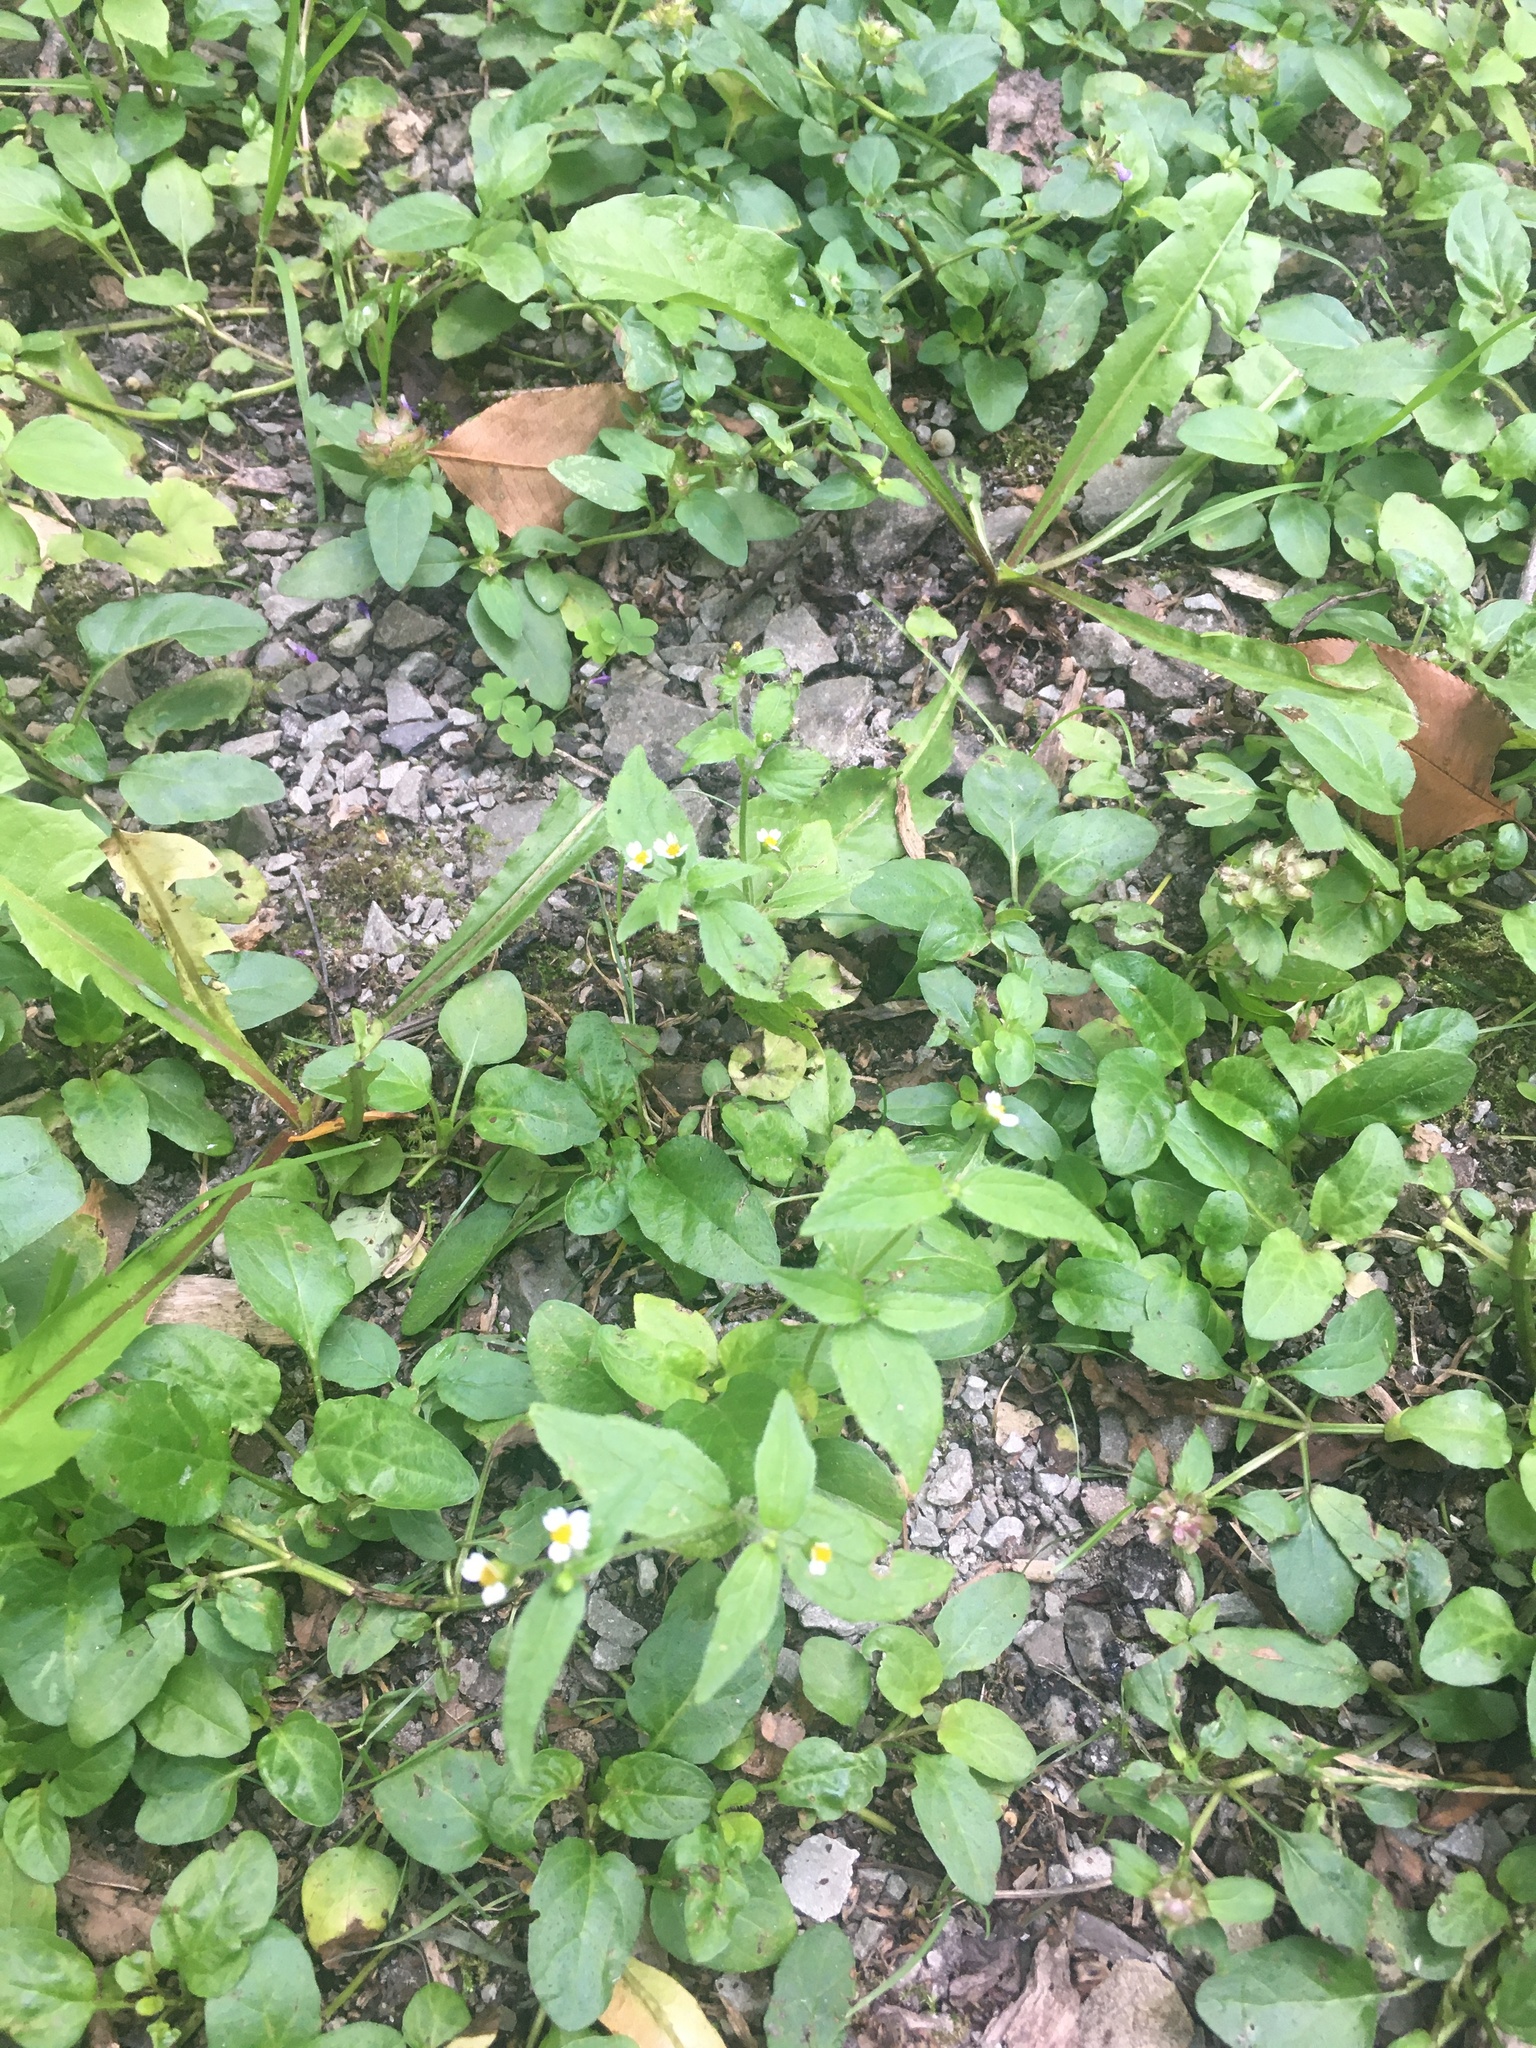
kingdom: Plantae
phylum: Tracheophyta
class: Magnoliopsida
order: Asterales
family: Asteraceae
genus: Galinsoga
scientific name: Galinsoga quadriradiata
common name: Shaggy soldier
